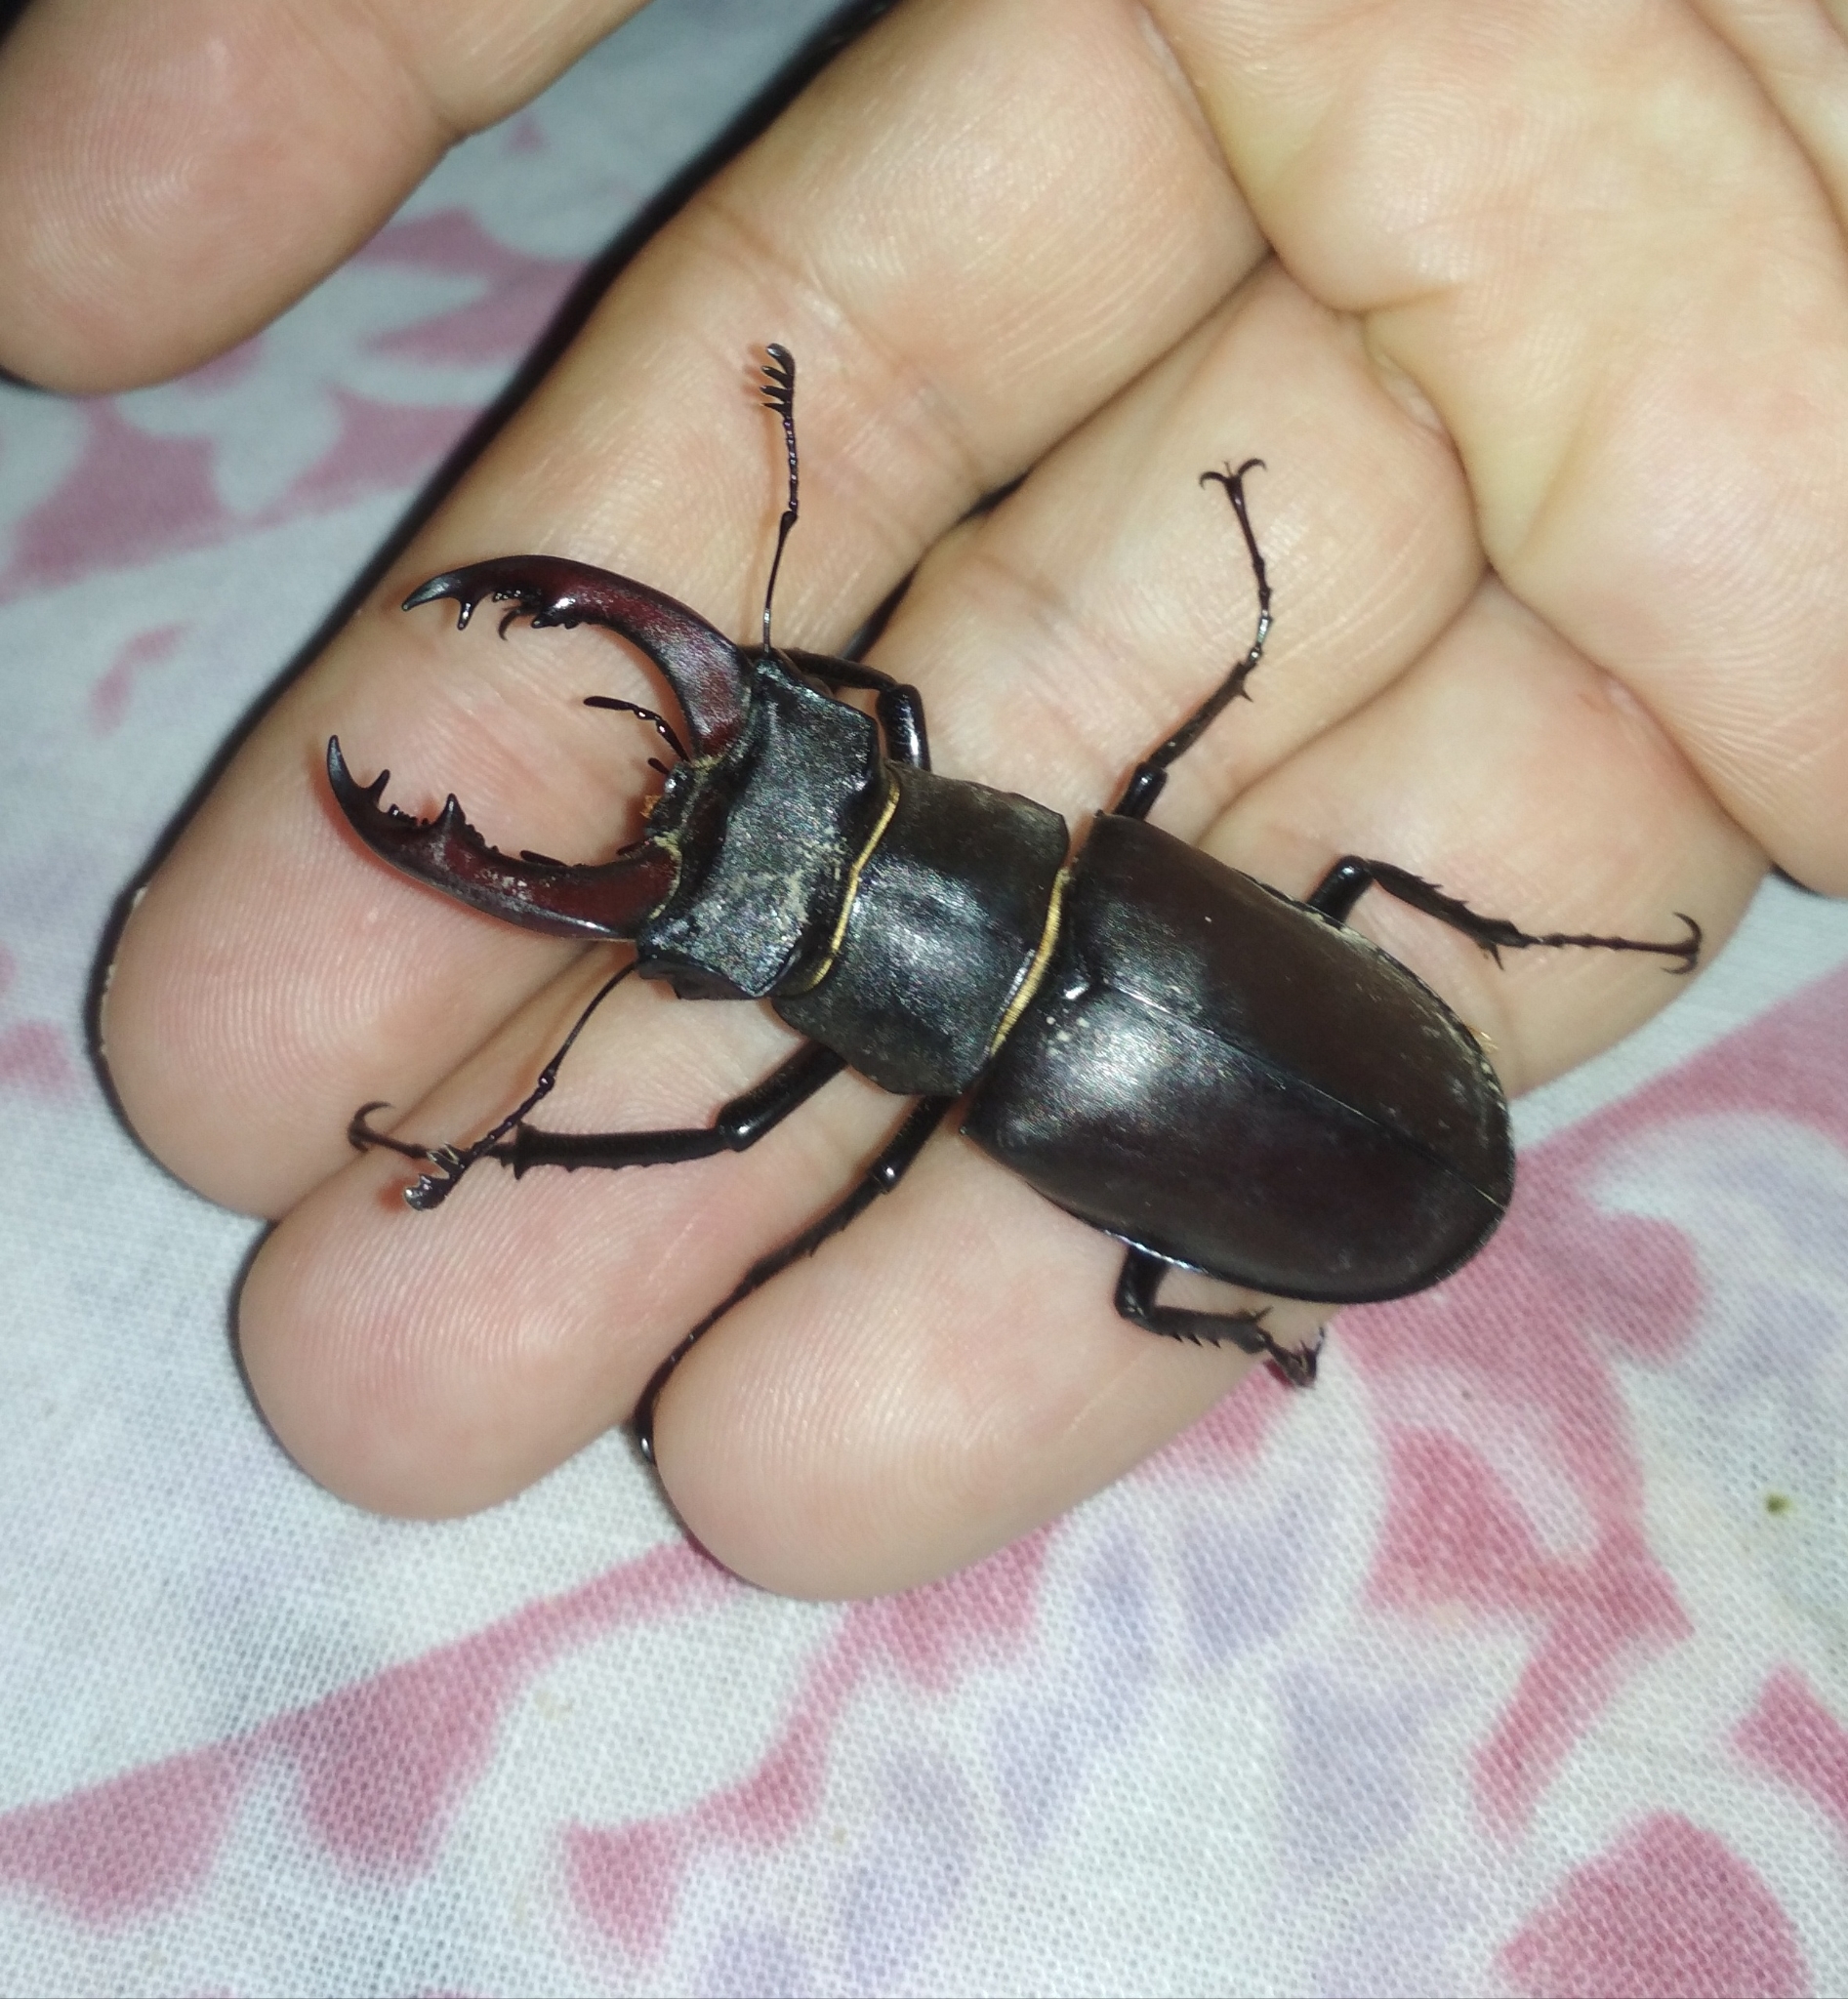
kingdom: Animalia
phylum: Arthropoda
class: Insecta
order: Coleoptera
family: Lucanidae
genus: Lucanus
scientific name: Lucanus cervus
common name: Stag beetle
